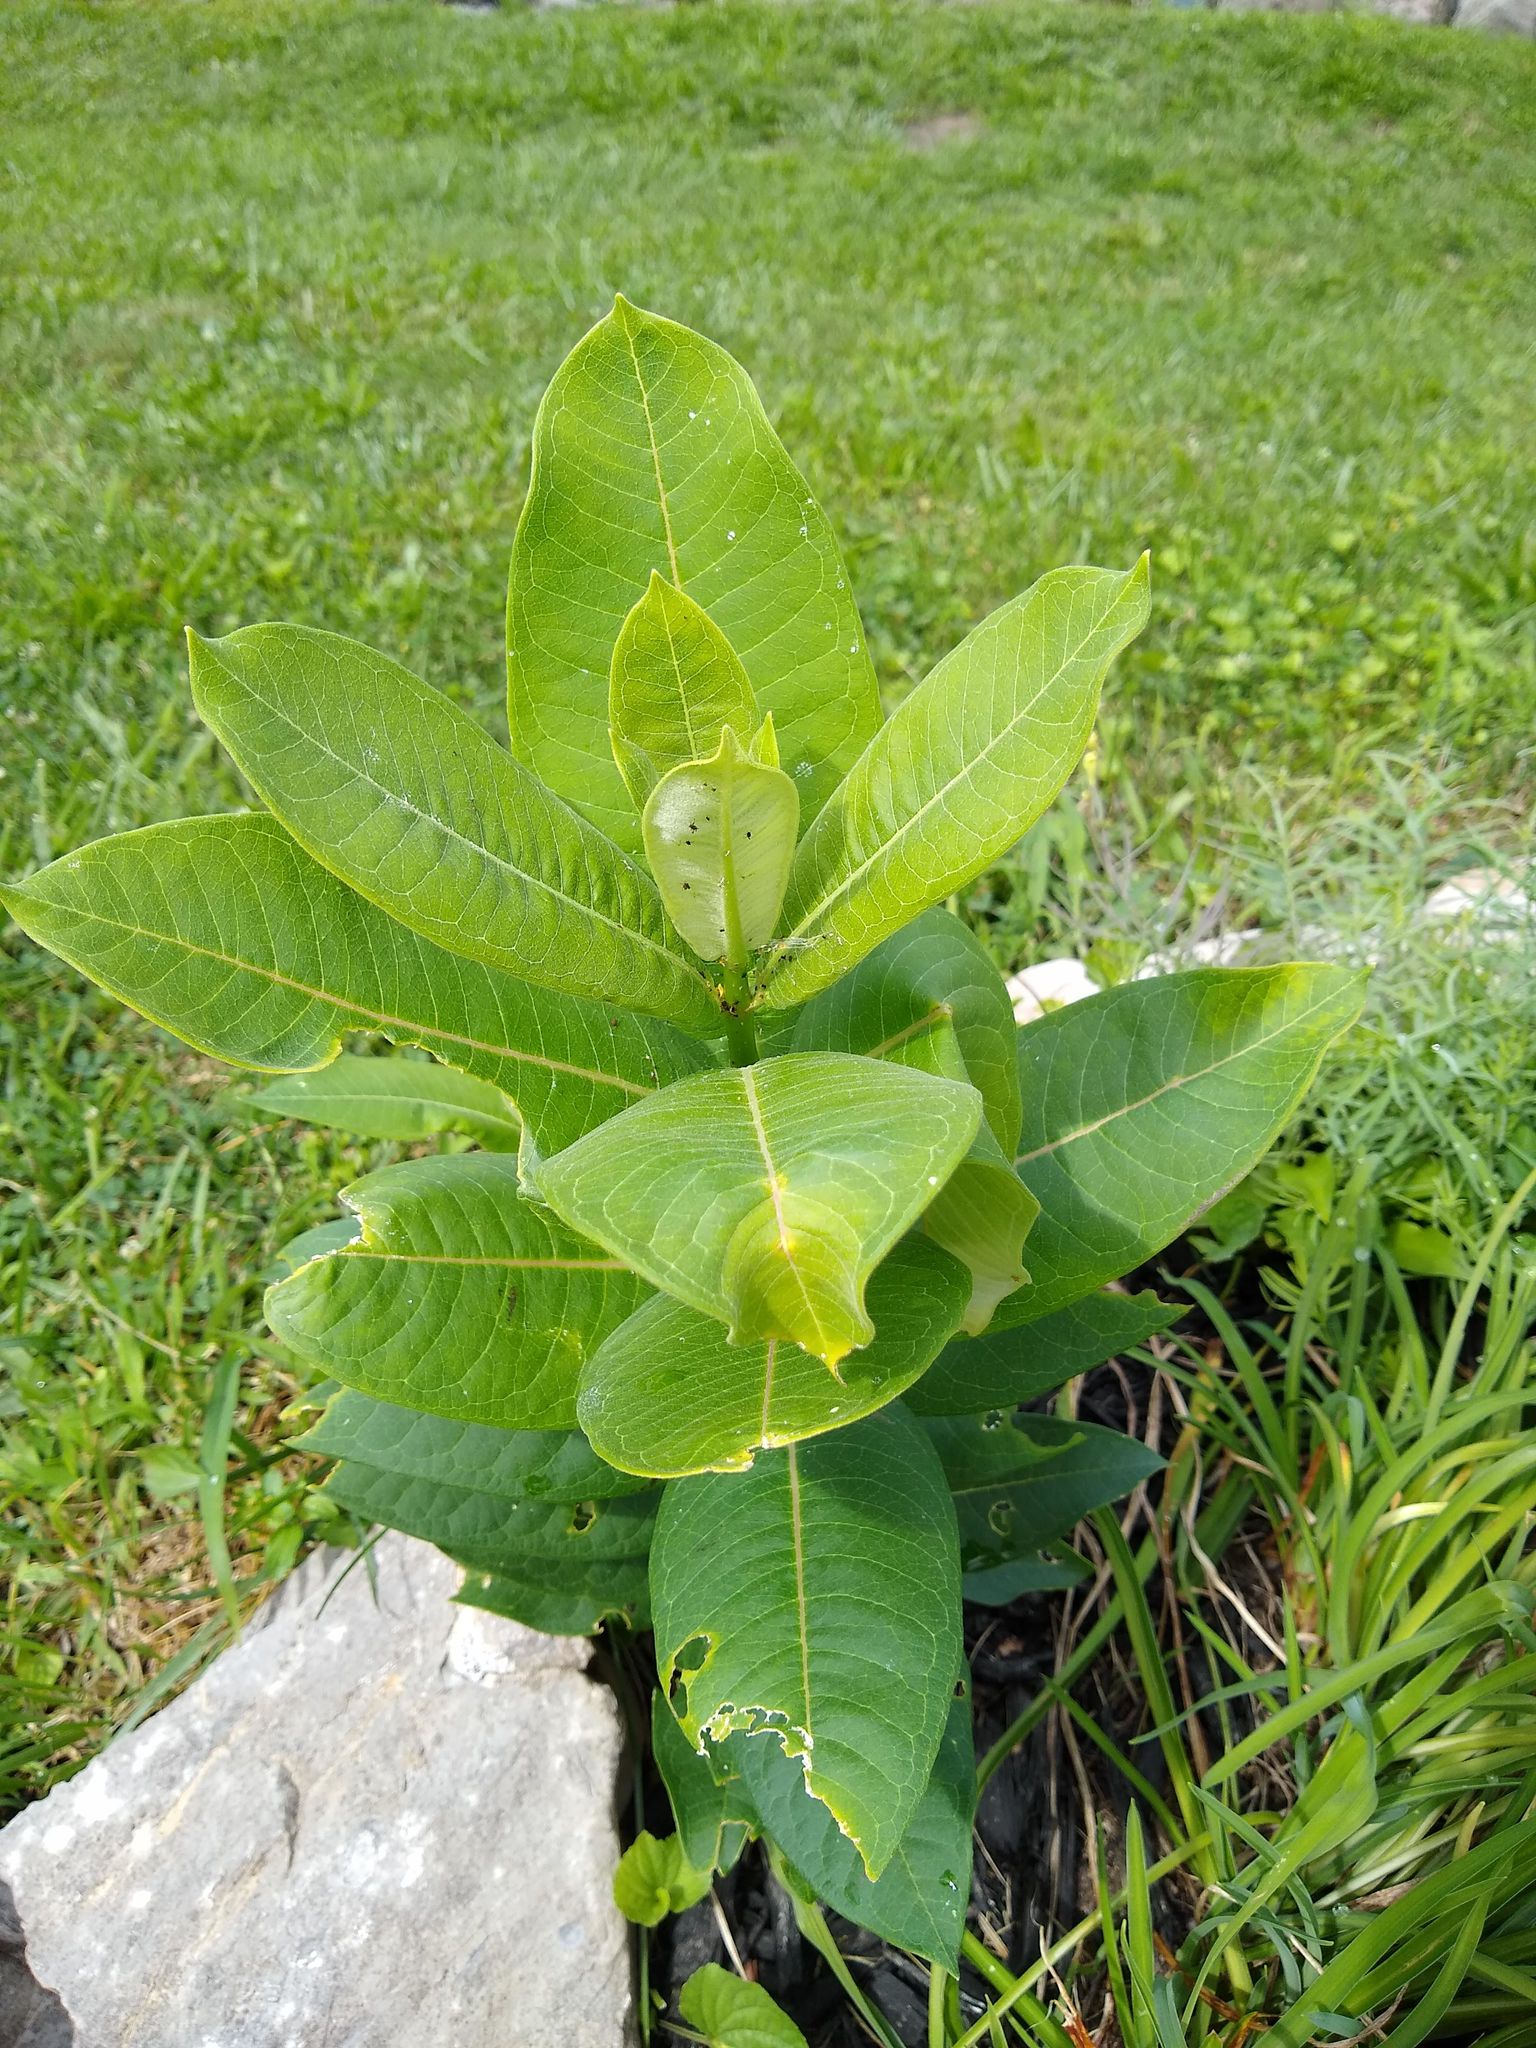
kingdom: Plantae
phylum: Tracheophyta
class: Magnoliopsida
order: Gentianales
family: Apocynaceae
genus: Asclepias
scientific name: Asclepias syriaca
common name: Common milkweed
